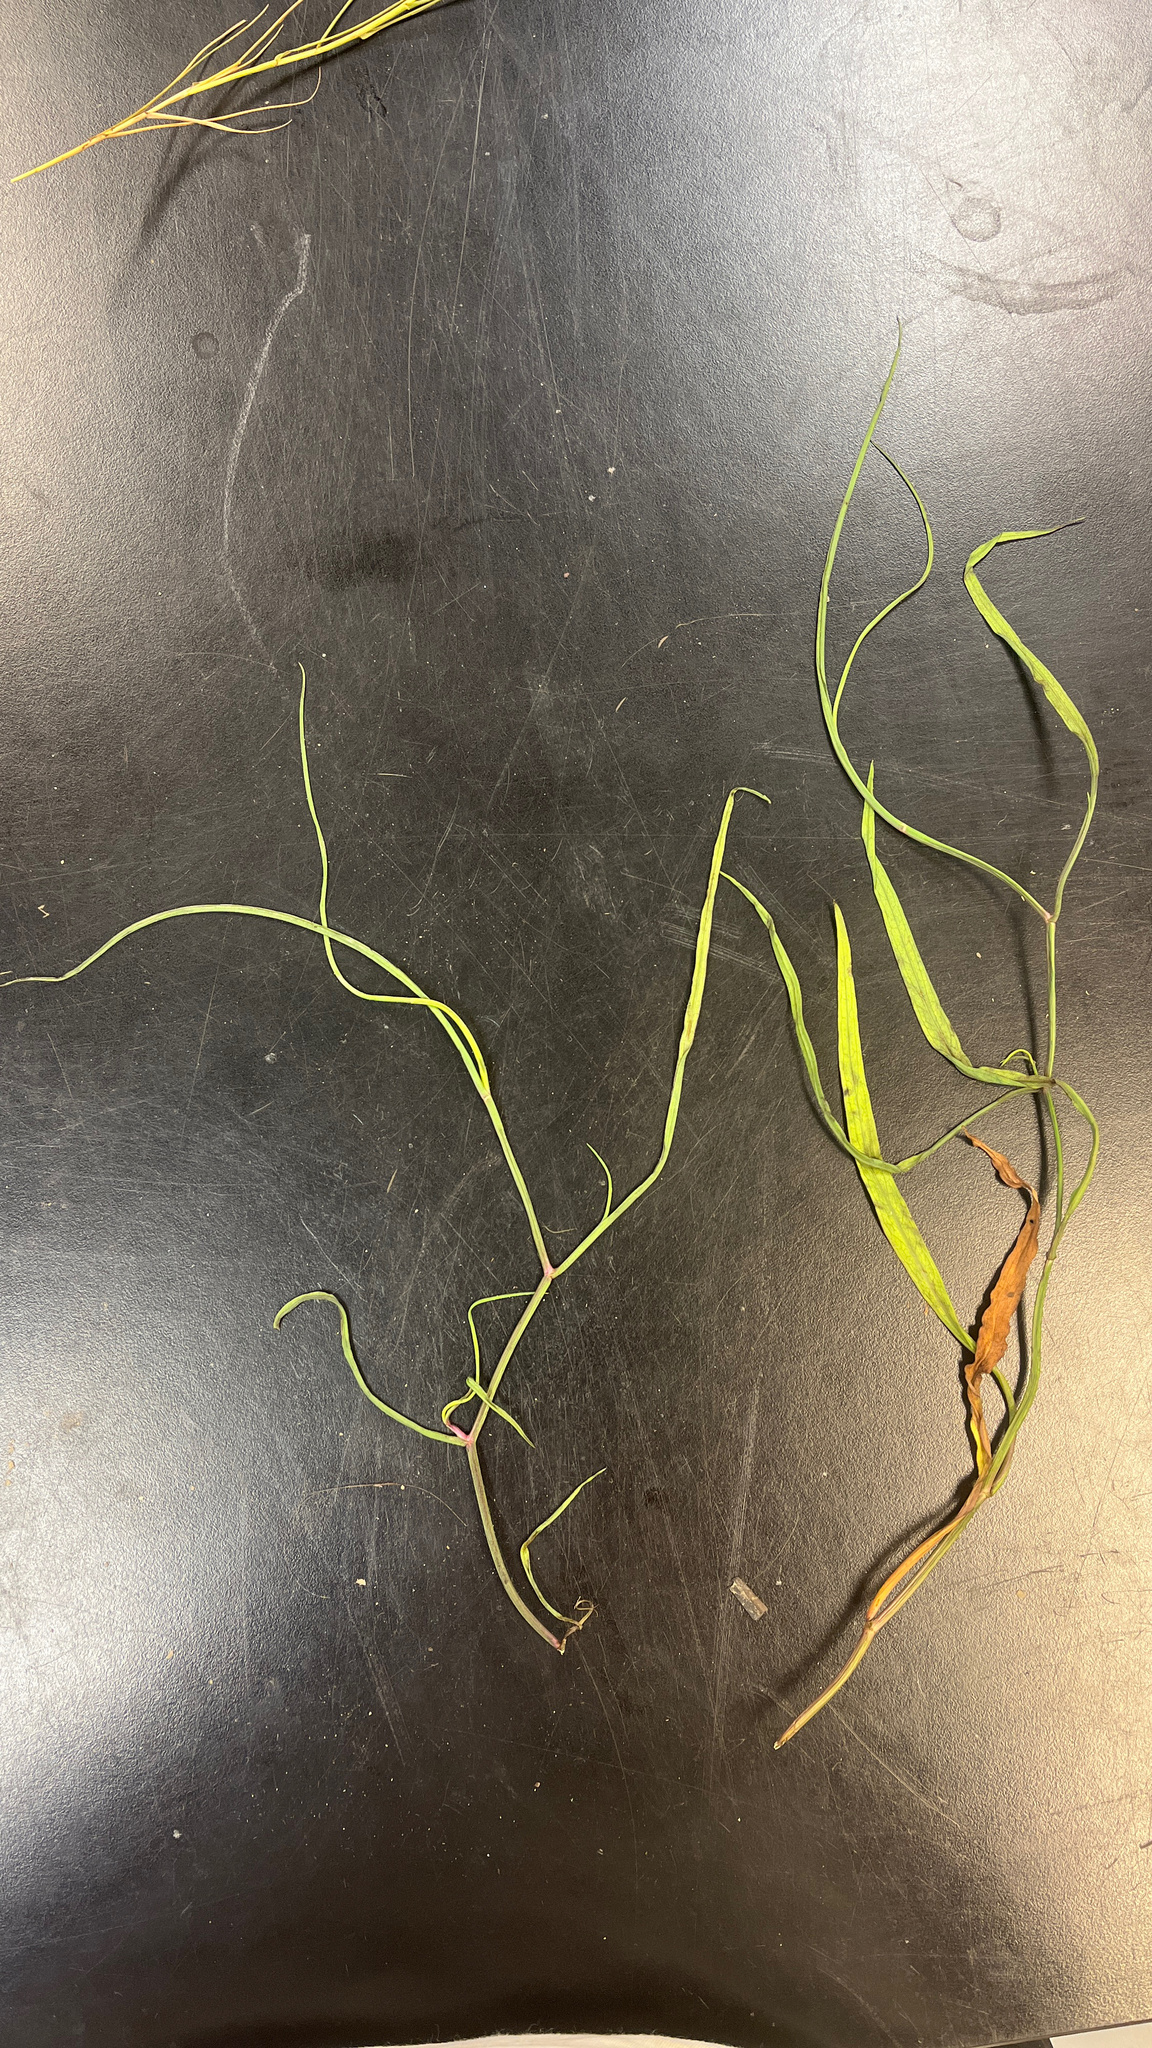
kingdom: Plantae
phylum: Tracheophyta
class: Magnoliopsida
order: Asterales
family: Asteraceae
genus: Symphyotrichum
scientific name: Symphyotrichum tenuifolium
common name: Perennial salt-marsh aster
